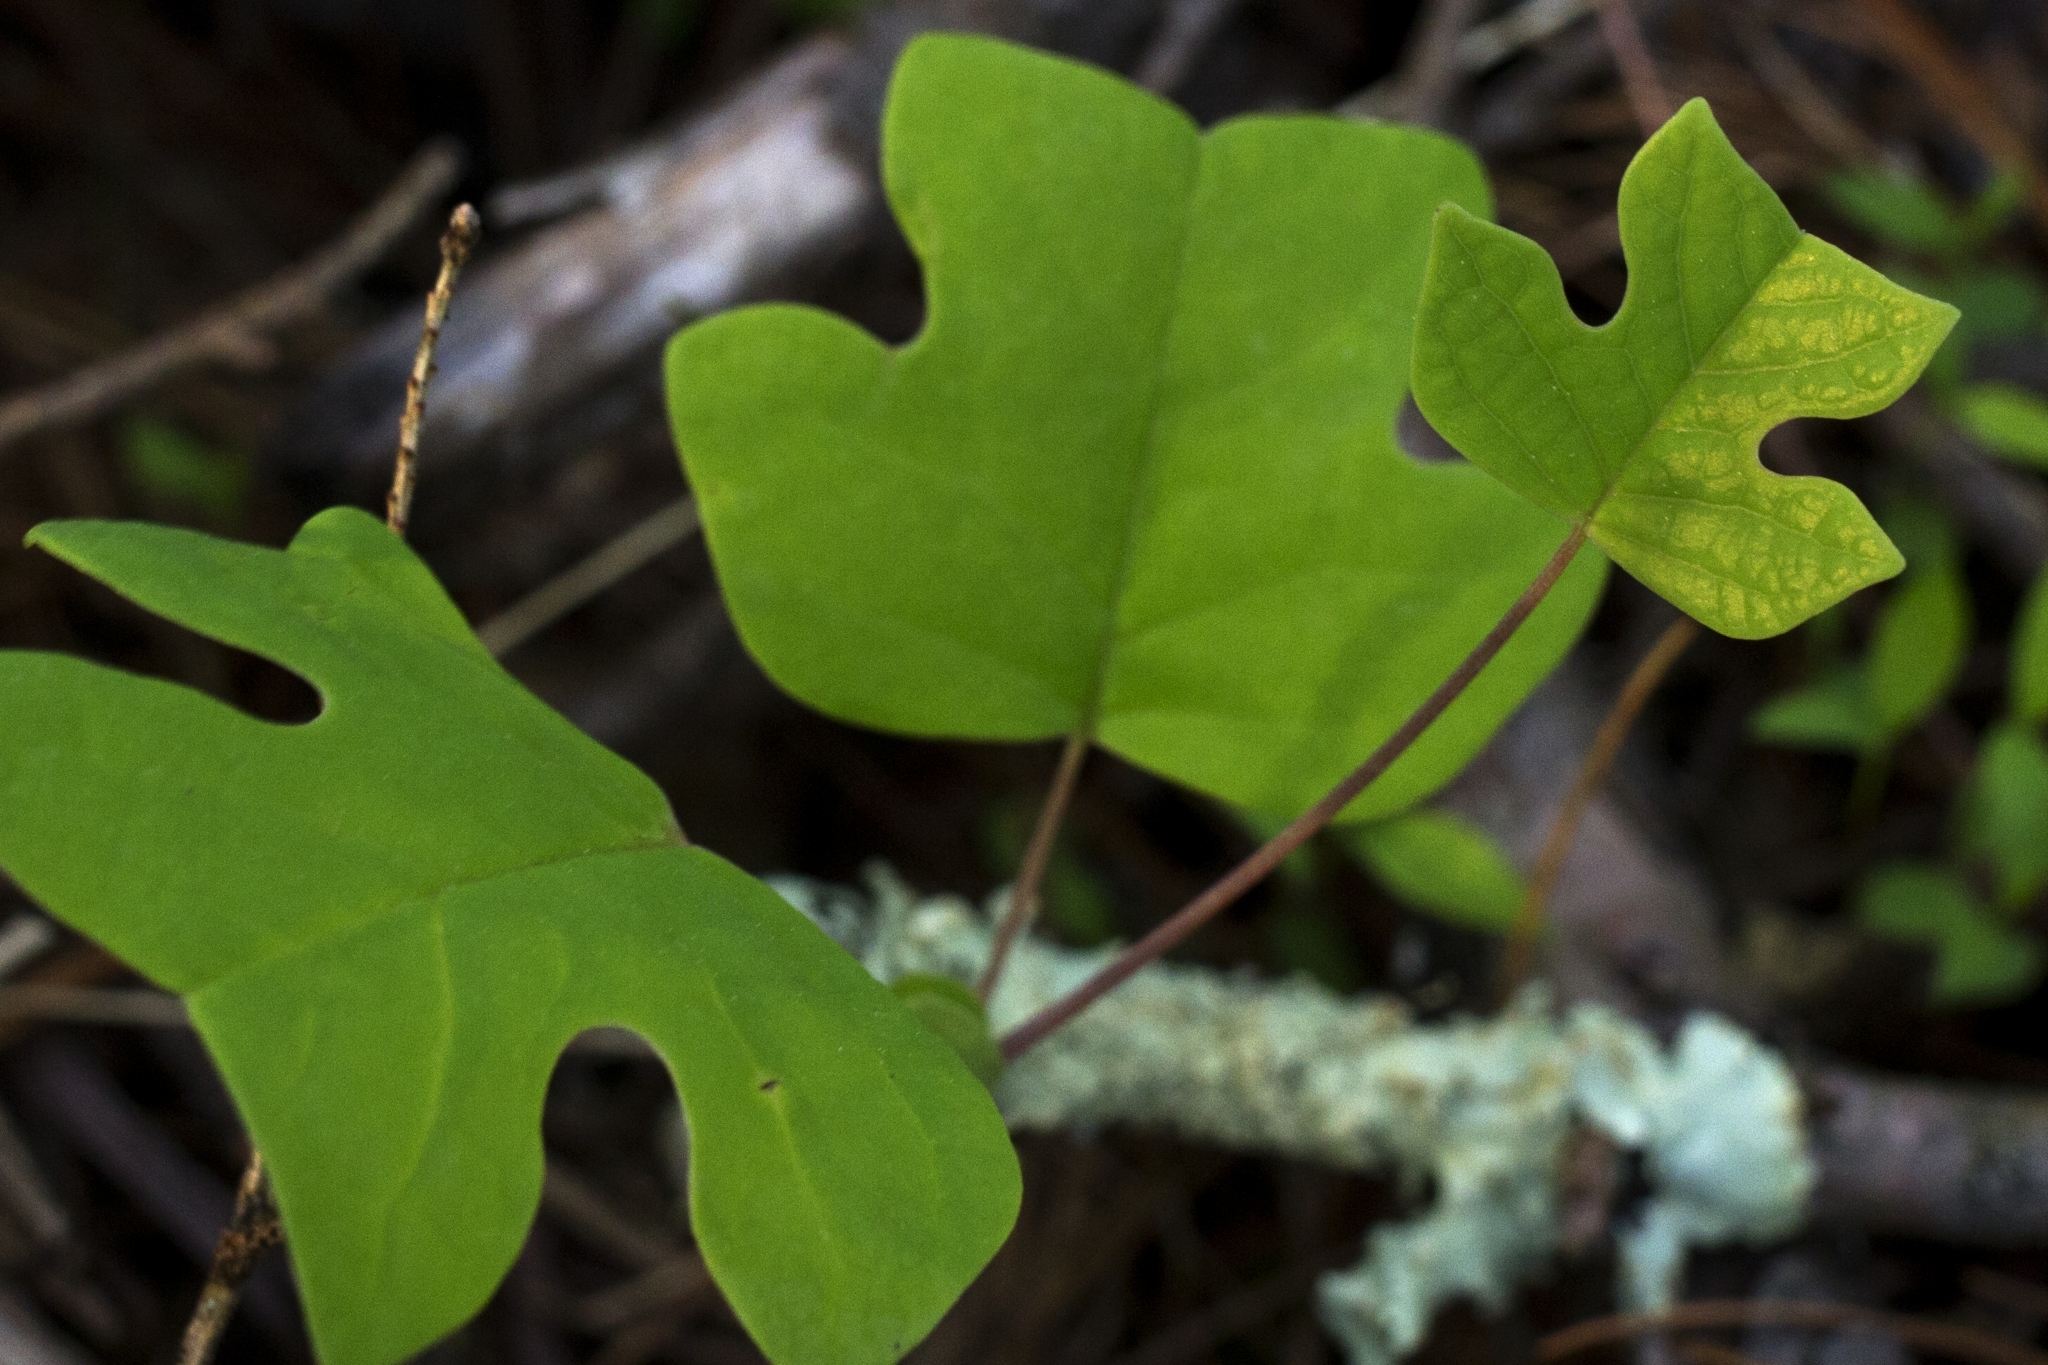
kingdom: Plantae
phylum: Tracheophyta
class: Magnoliopsida
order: Magnoliales
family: Magnoliaceae
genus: Liriodendron
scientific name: Liriodendron tulipifera
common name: Tulip tree
